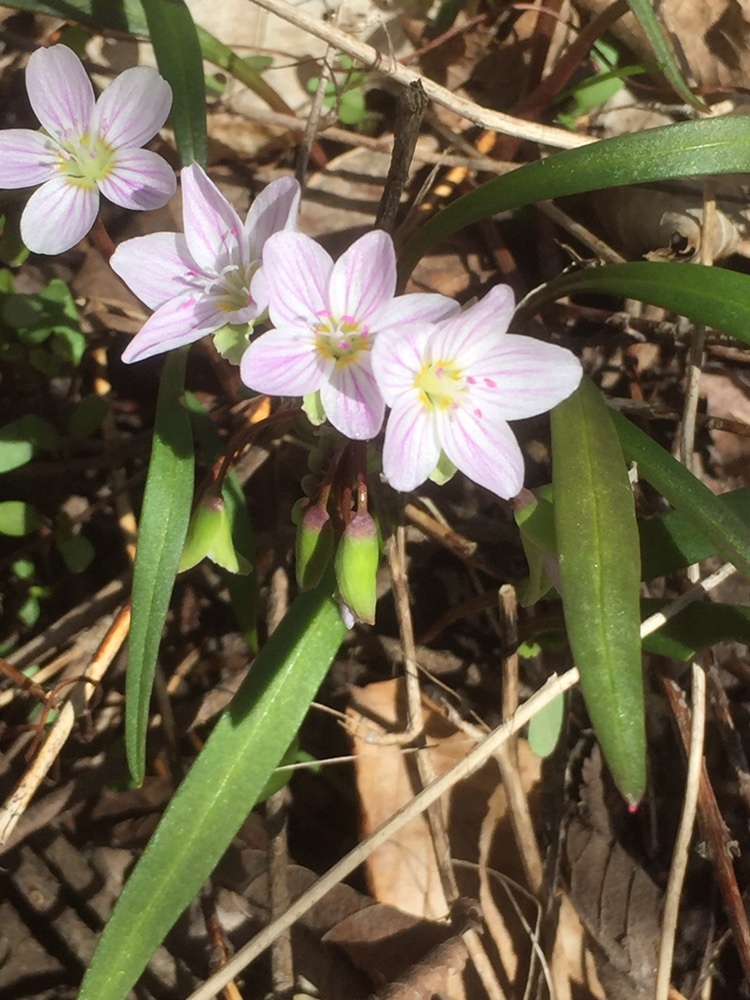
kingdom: Plantae
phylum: Tracheophyta
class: Magnoliopsida
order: Caryophyllales
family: Montiaceae
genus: Claytonia
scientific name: Claytonia virginica
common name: Virginia springbeauty
